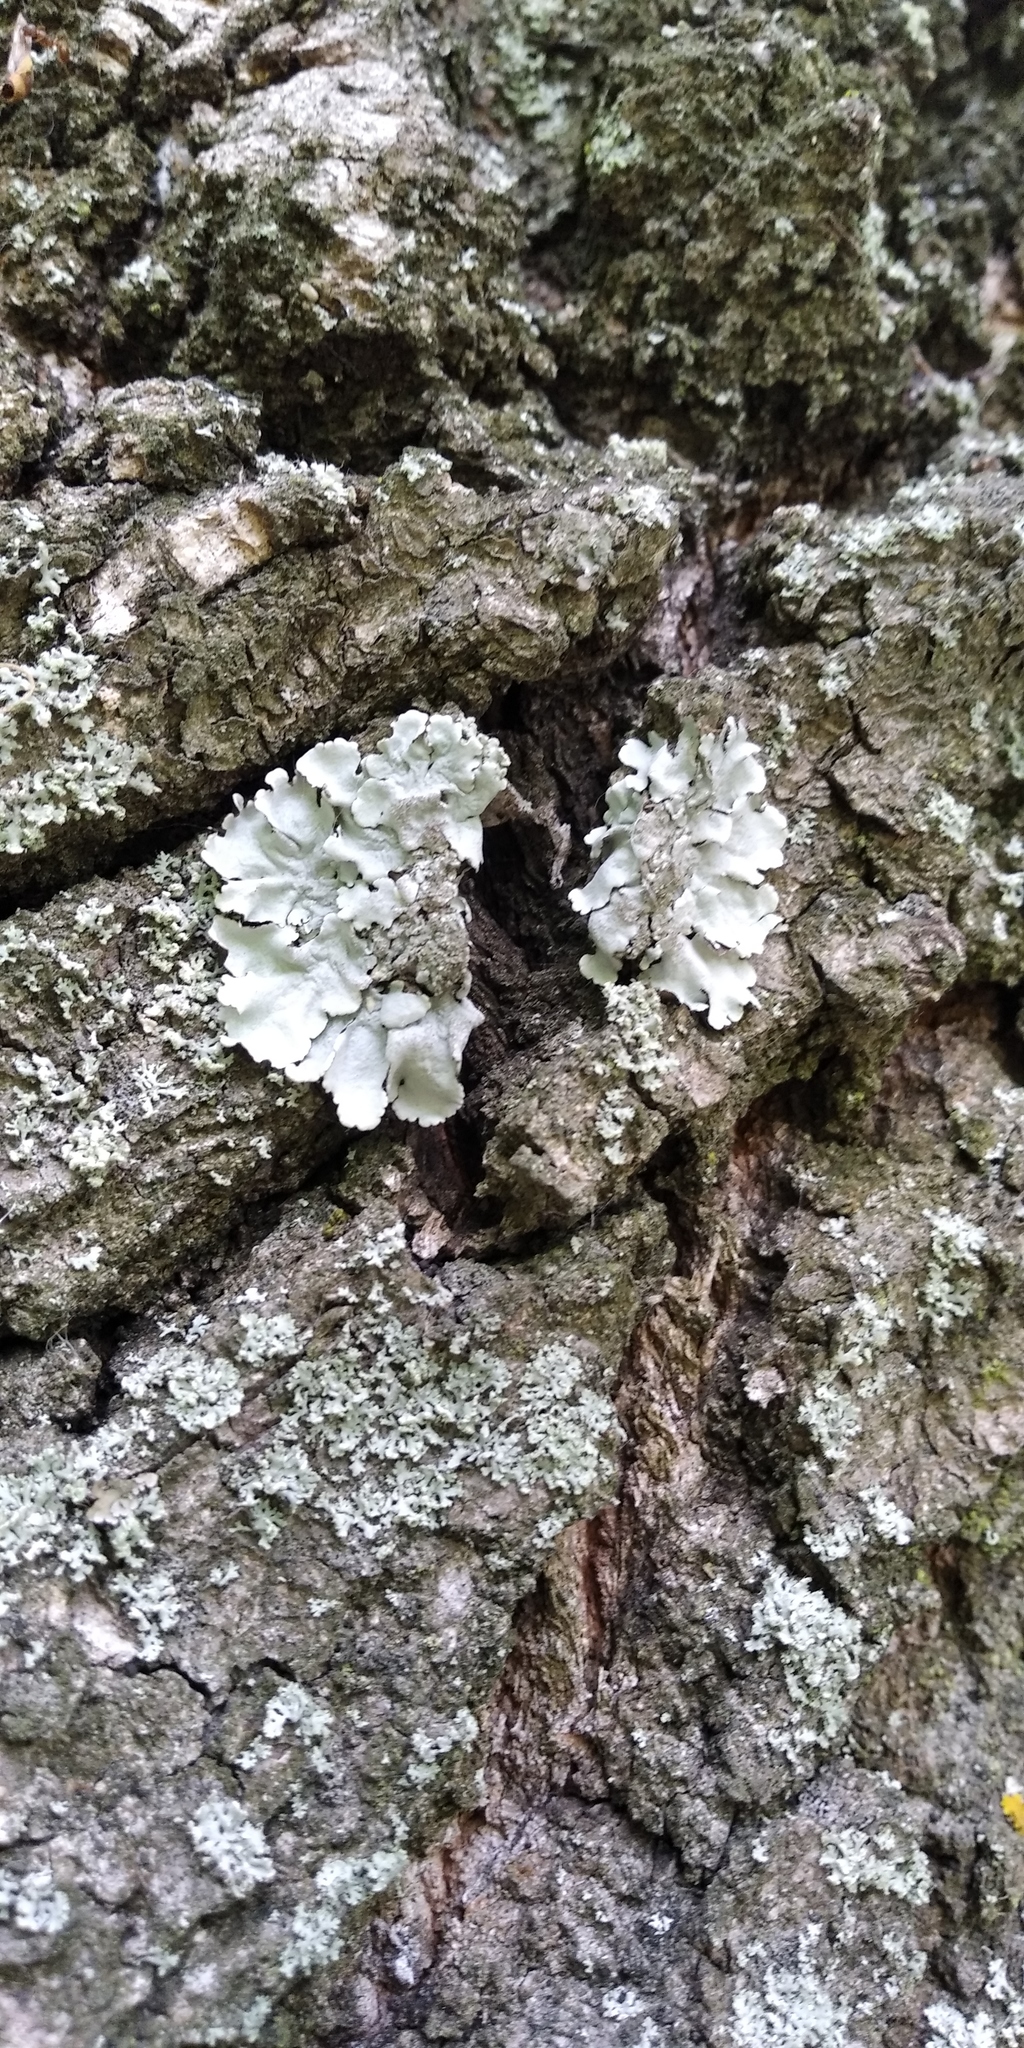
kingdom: Fungi
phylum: Ascomycota
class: Lecanoromycetes
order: Lecanorales
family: Parmeliaceae
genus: Parmelina
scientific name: Parmelina tiliacea
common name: Linden shield lichen
